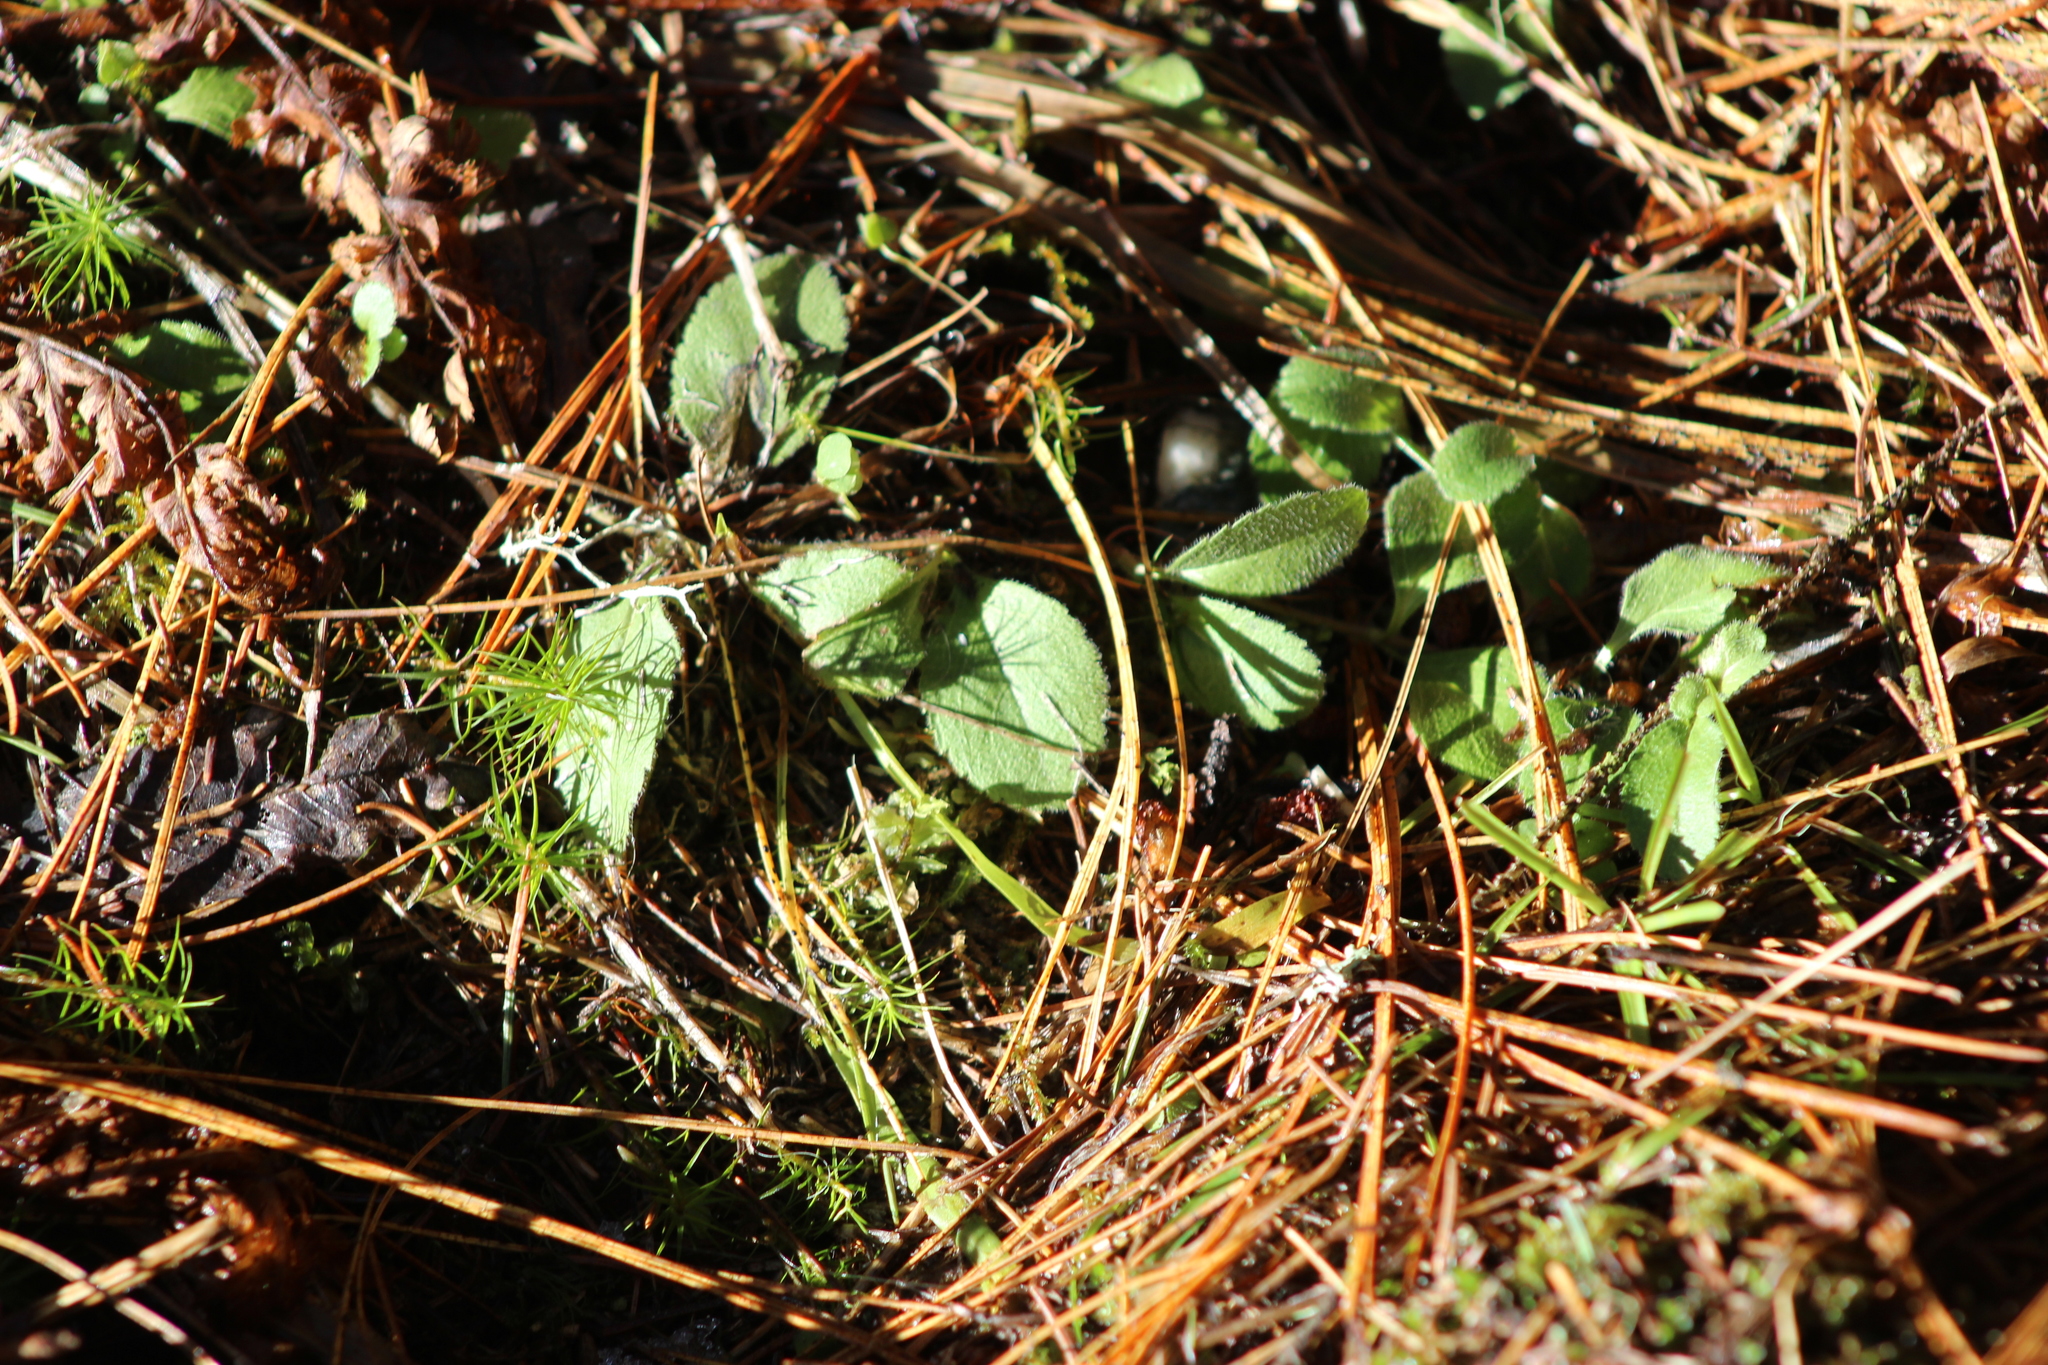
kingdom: Plantae
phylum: Tracheophyta
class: Magnoliopsida
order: Lamiales
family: Plantaginaceae
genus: Veronica
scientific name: Veronica officinalis
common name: Common speedwell
